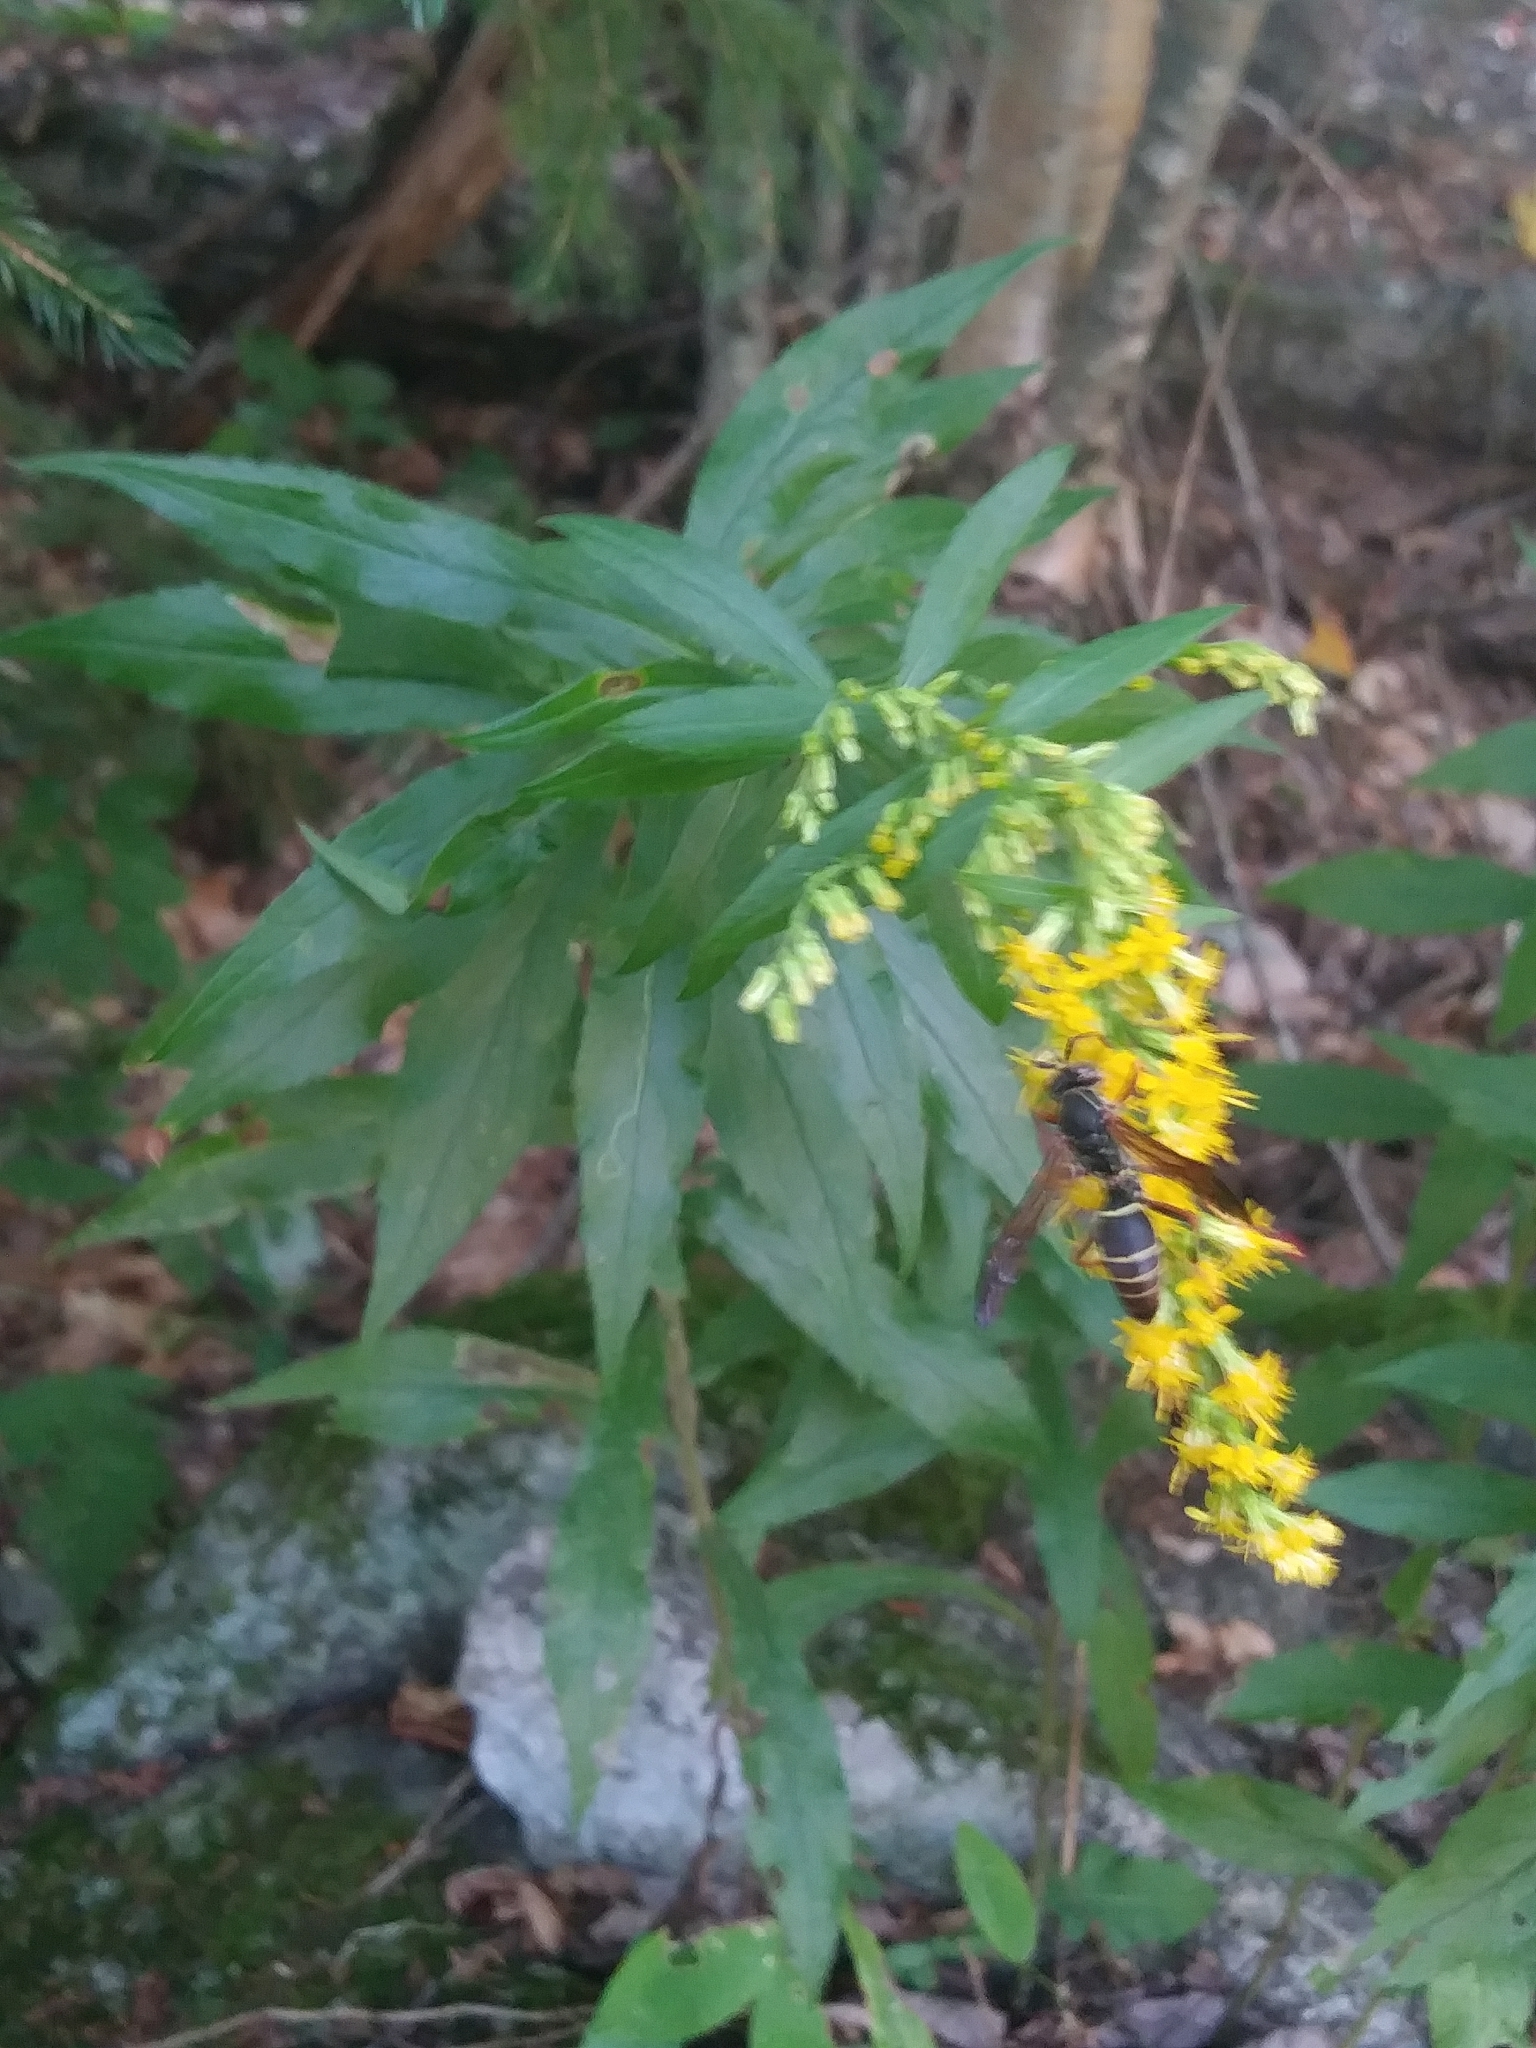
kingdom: Animalia
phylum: Arthropoda
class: Insecta
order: Hymenoptera
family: Eumenidae
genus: Polistes
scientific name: Polistes fuscatus
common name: Dark paper wasp
